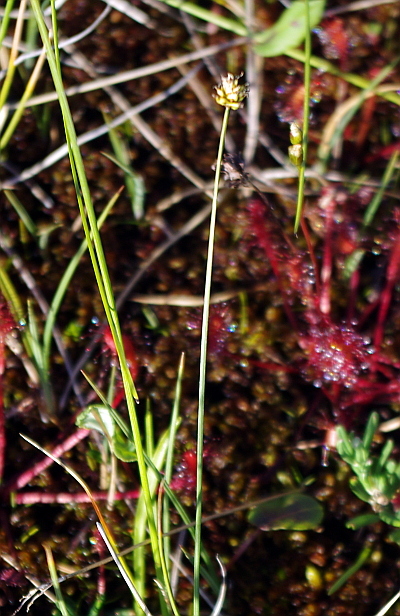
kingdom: Plantae
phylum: Tracheophyta
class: Liliopsida
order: Poales
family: Cyperaceae
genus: Carex
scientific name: Carex capitata
